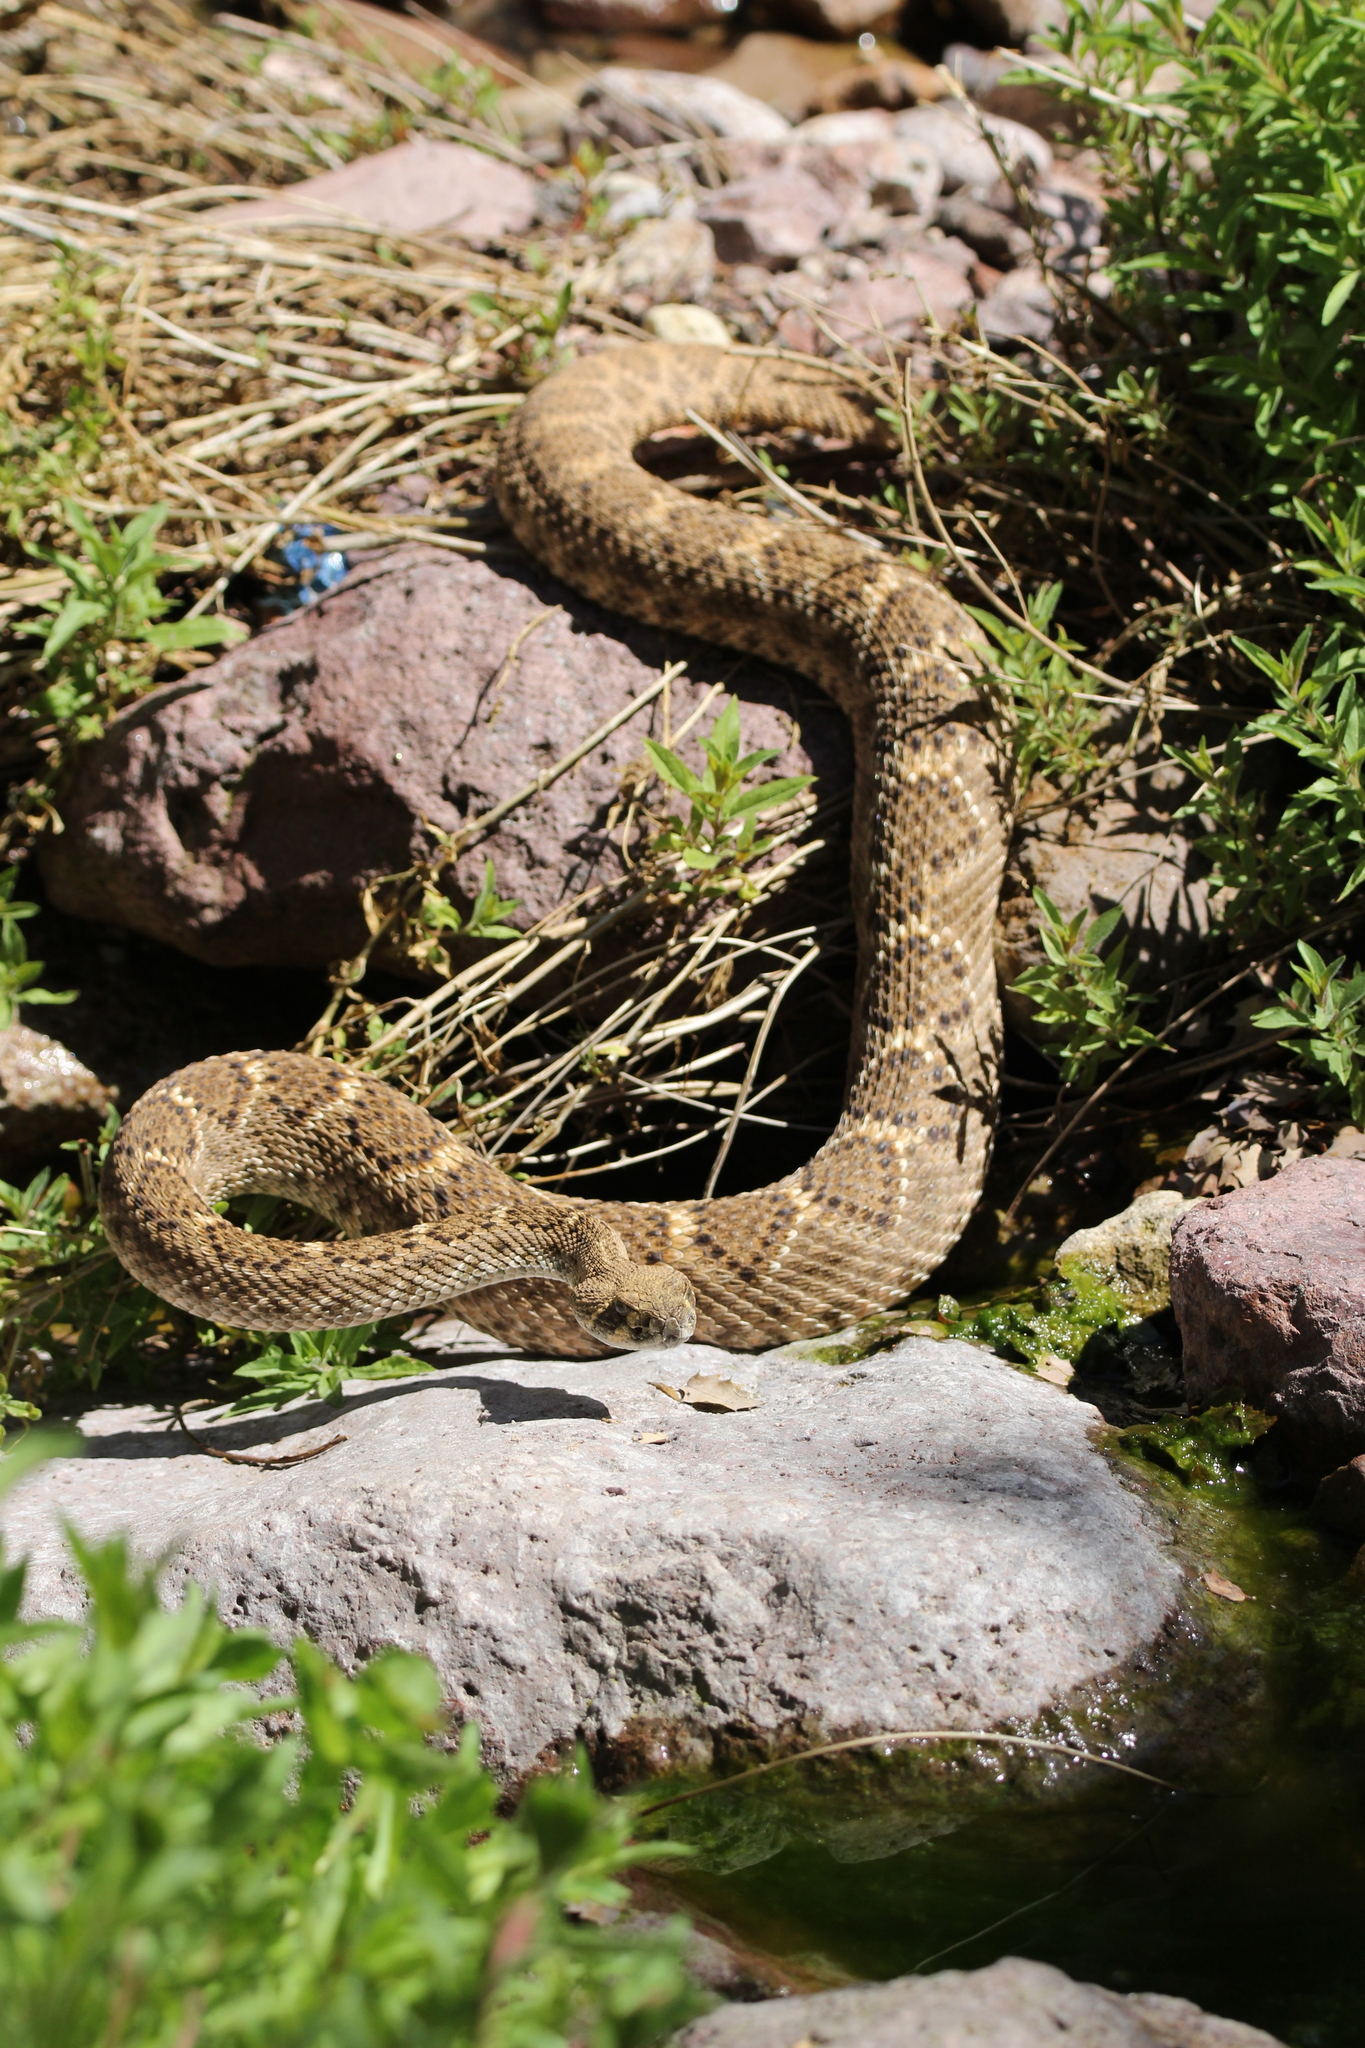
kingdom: Animalia
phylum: Chordata
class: Squamata
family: Viperidae
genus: Crotalus
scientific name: Crotalus atrox
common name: Western diamond-backed rattlesnake
